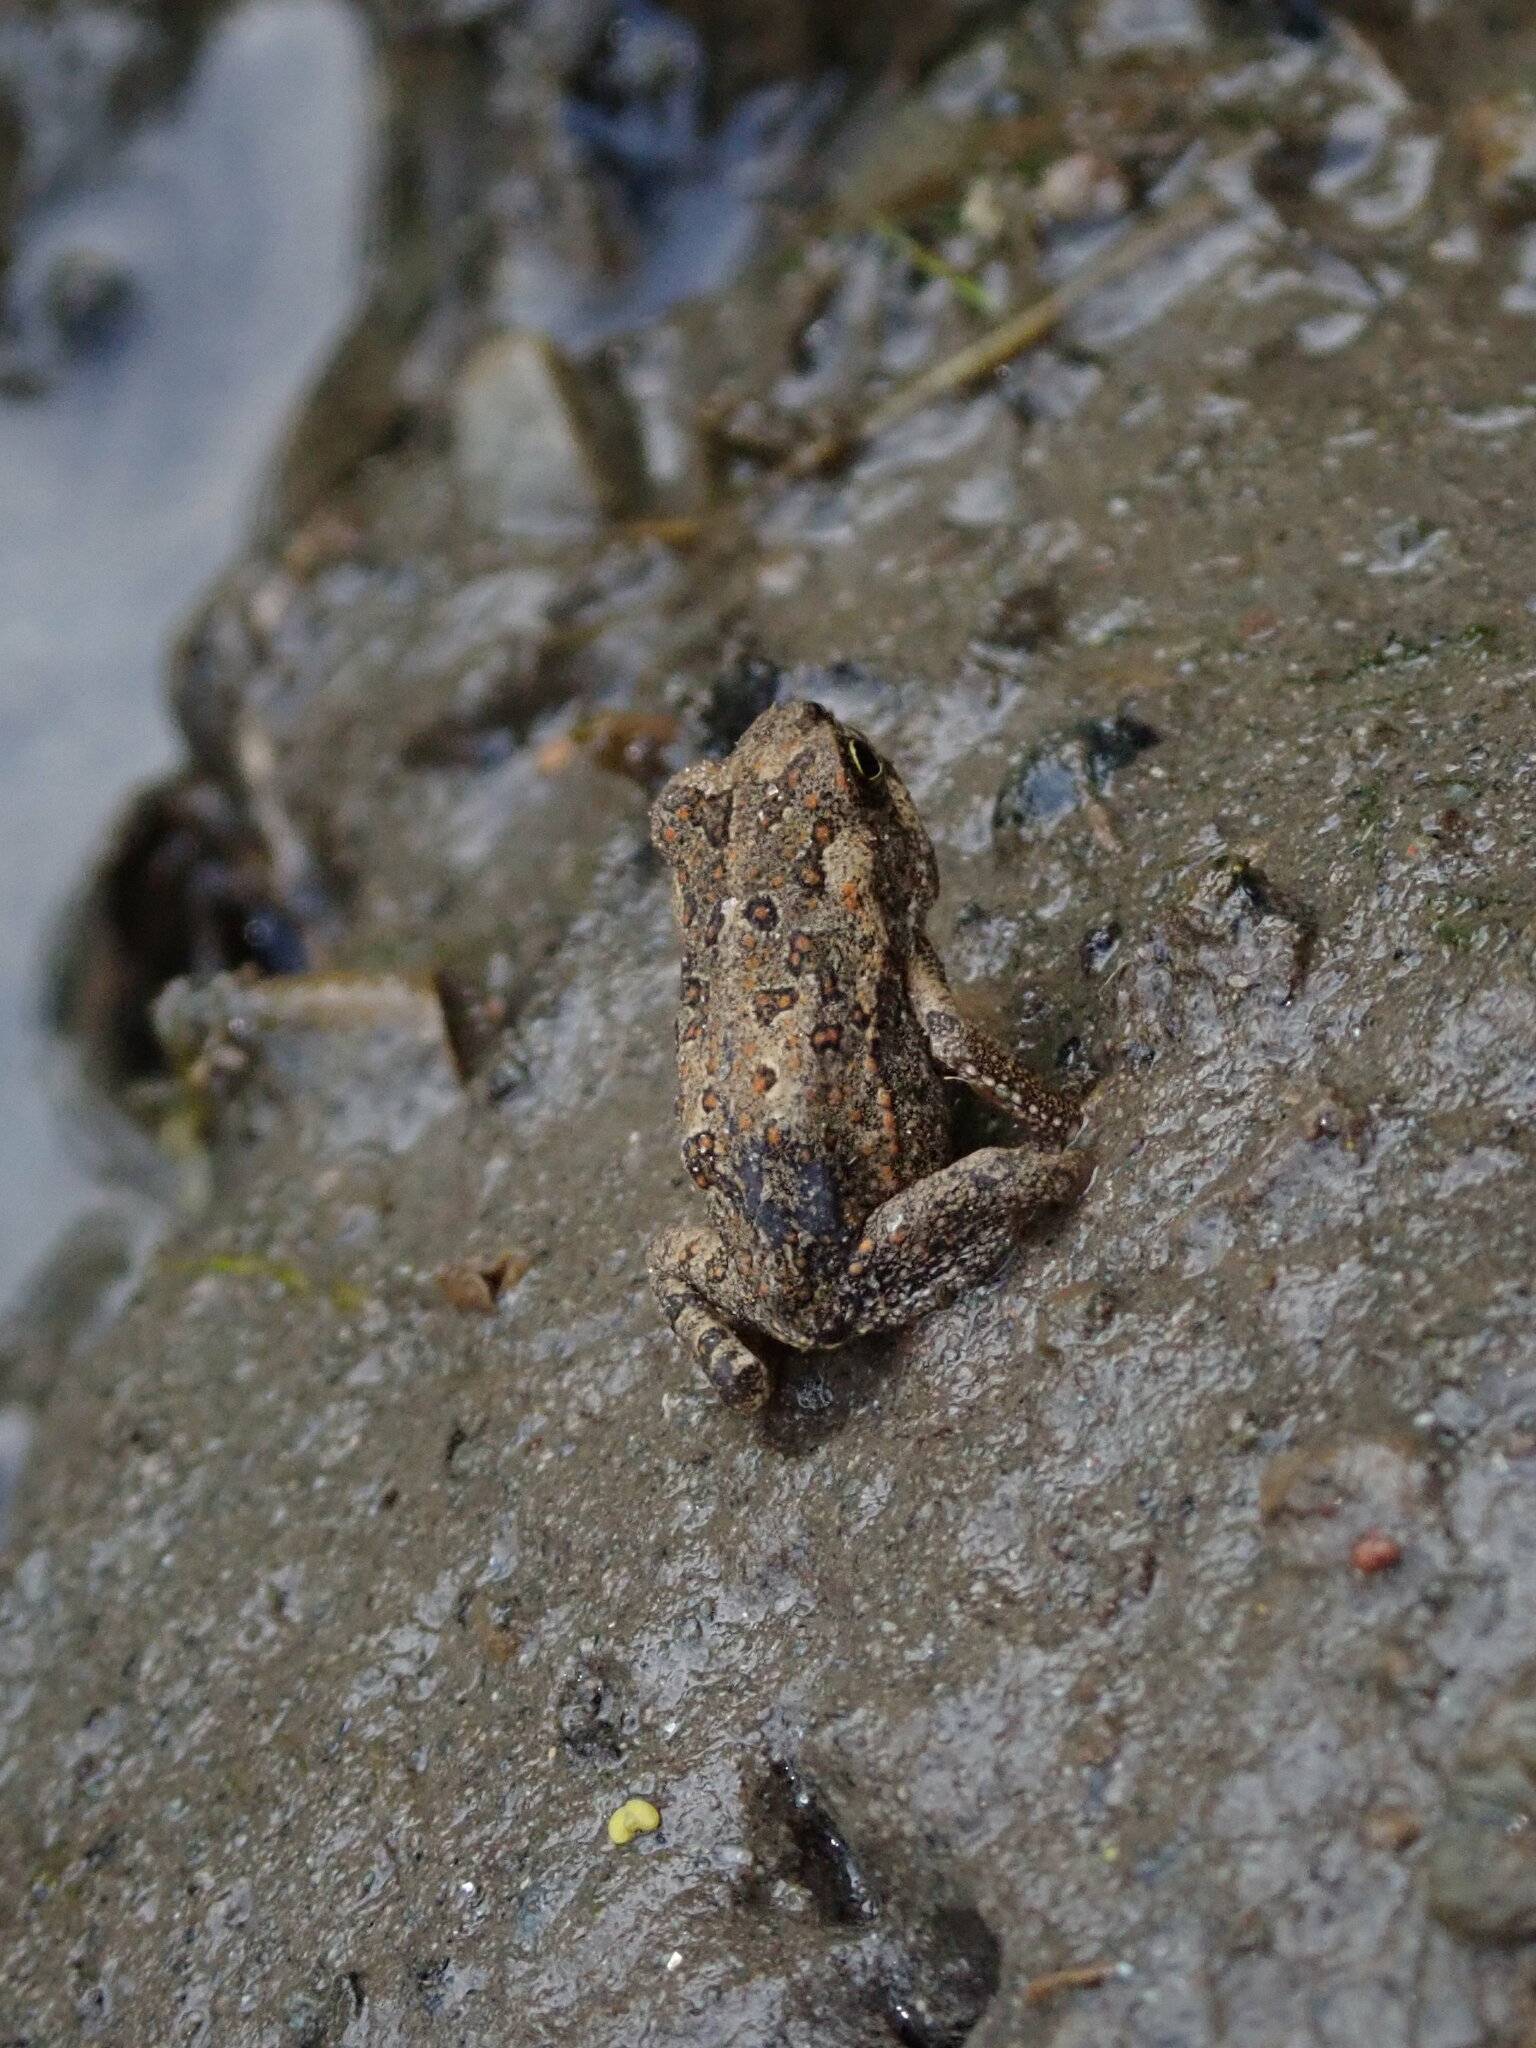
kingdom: Animalia
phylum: Chordata
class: Amphibia
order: Anura
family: Bufonidae
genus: Rhinella
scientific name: Rhinella arenarum
